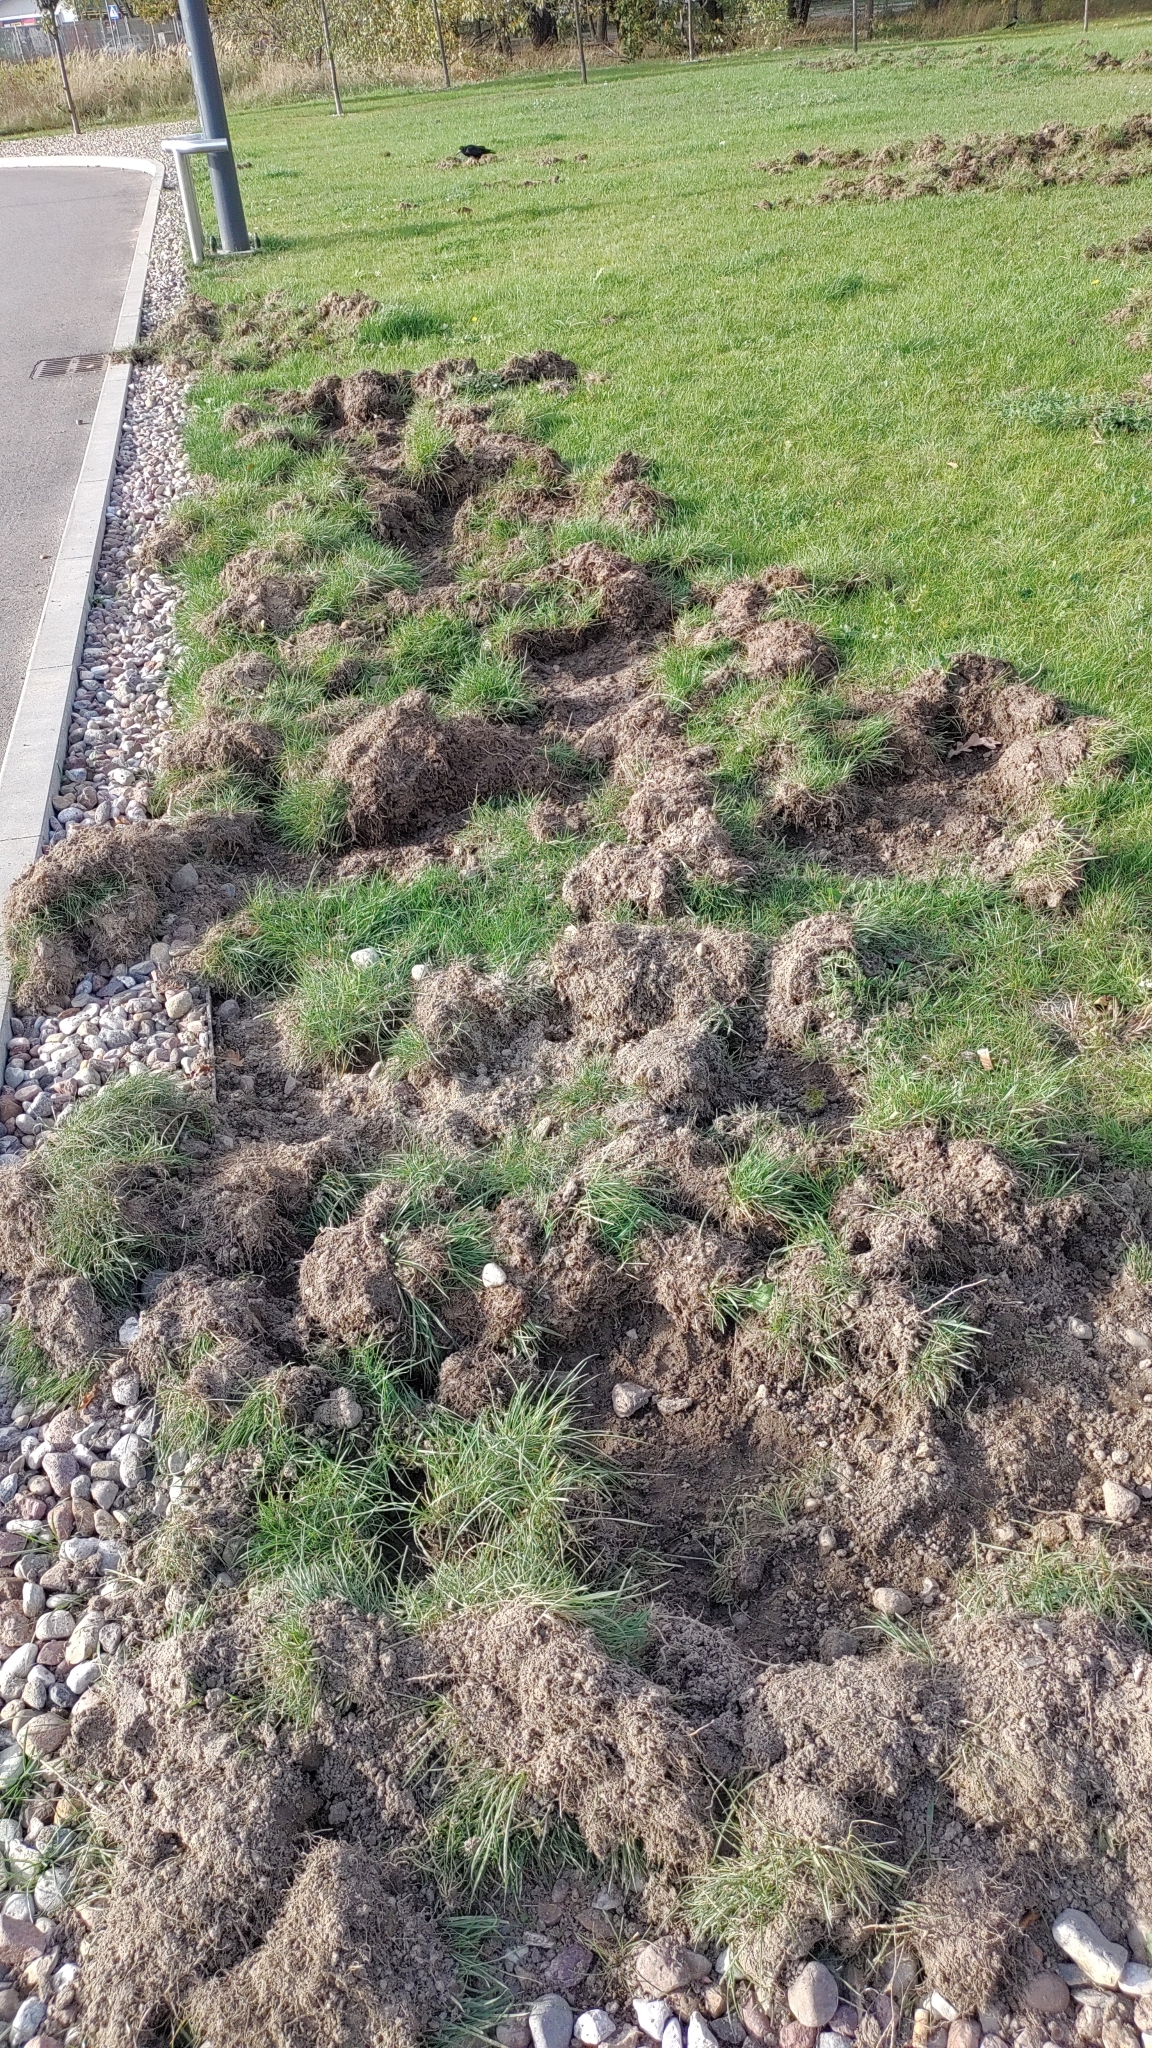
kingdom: Animalia
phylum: Chordata
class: Mammalia
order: Artiodactyla
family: Suidae
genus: Sus
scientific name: Sus scrofa
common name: Wild boar
